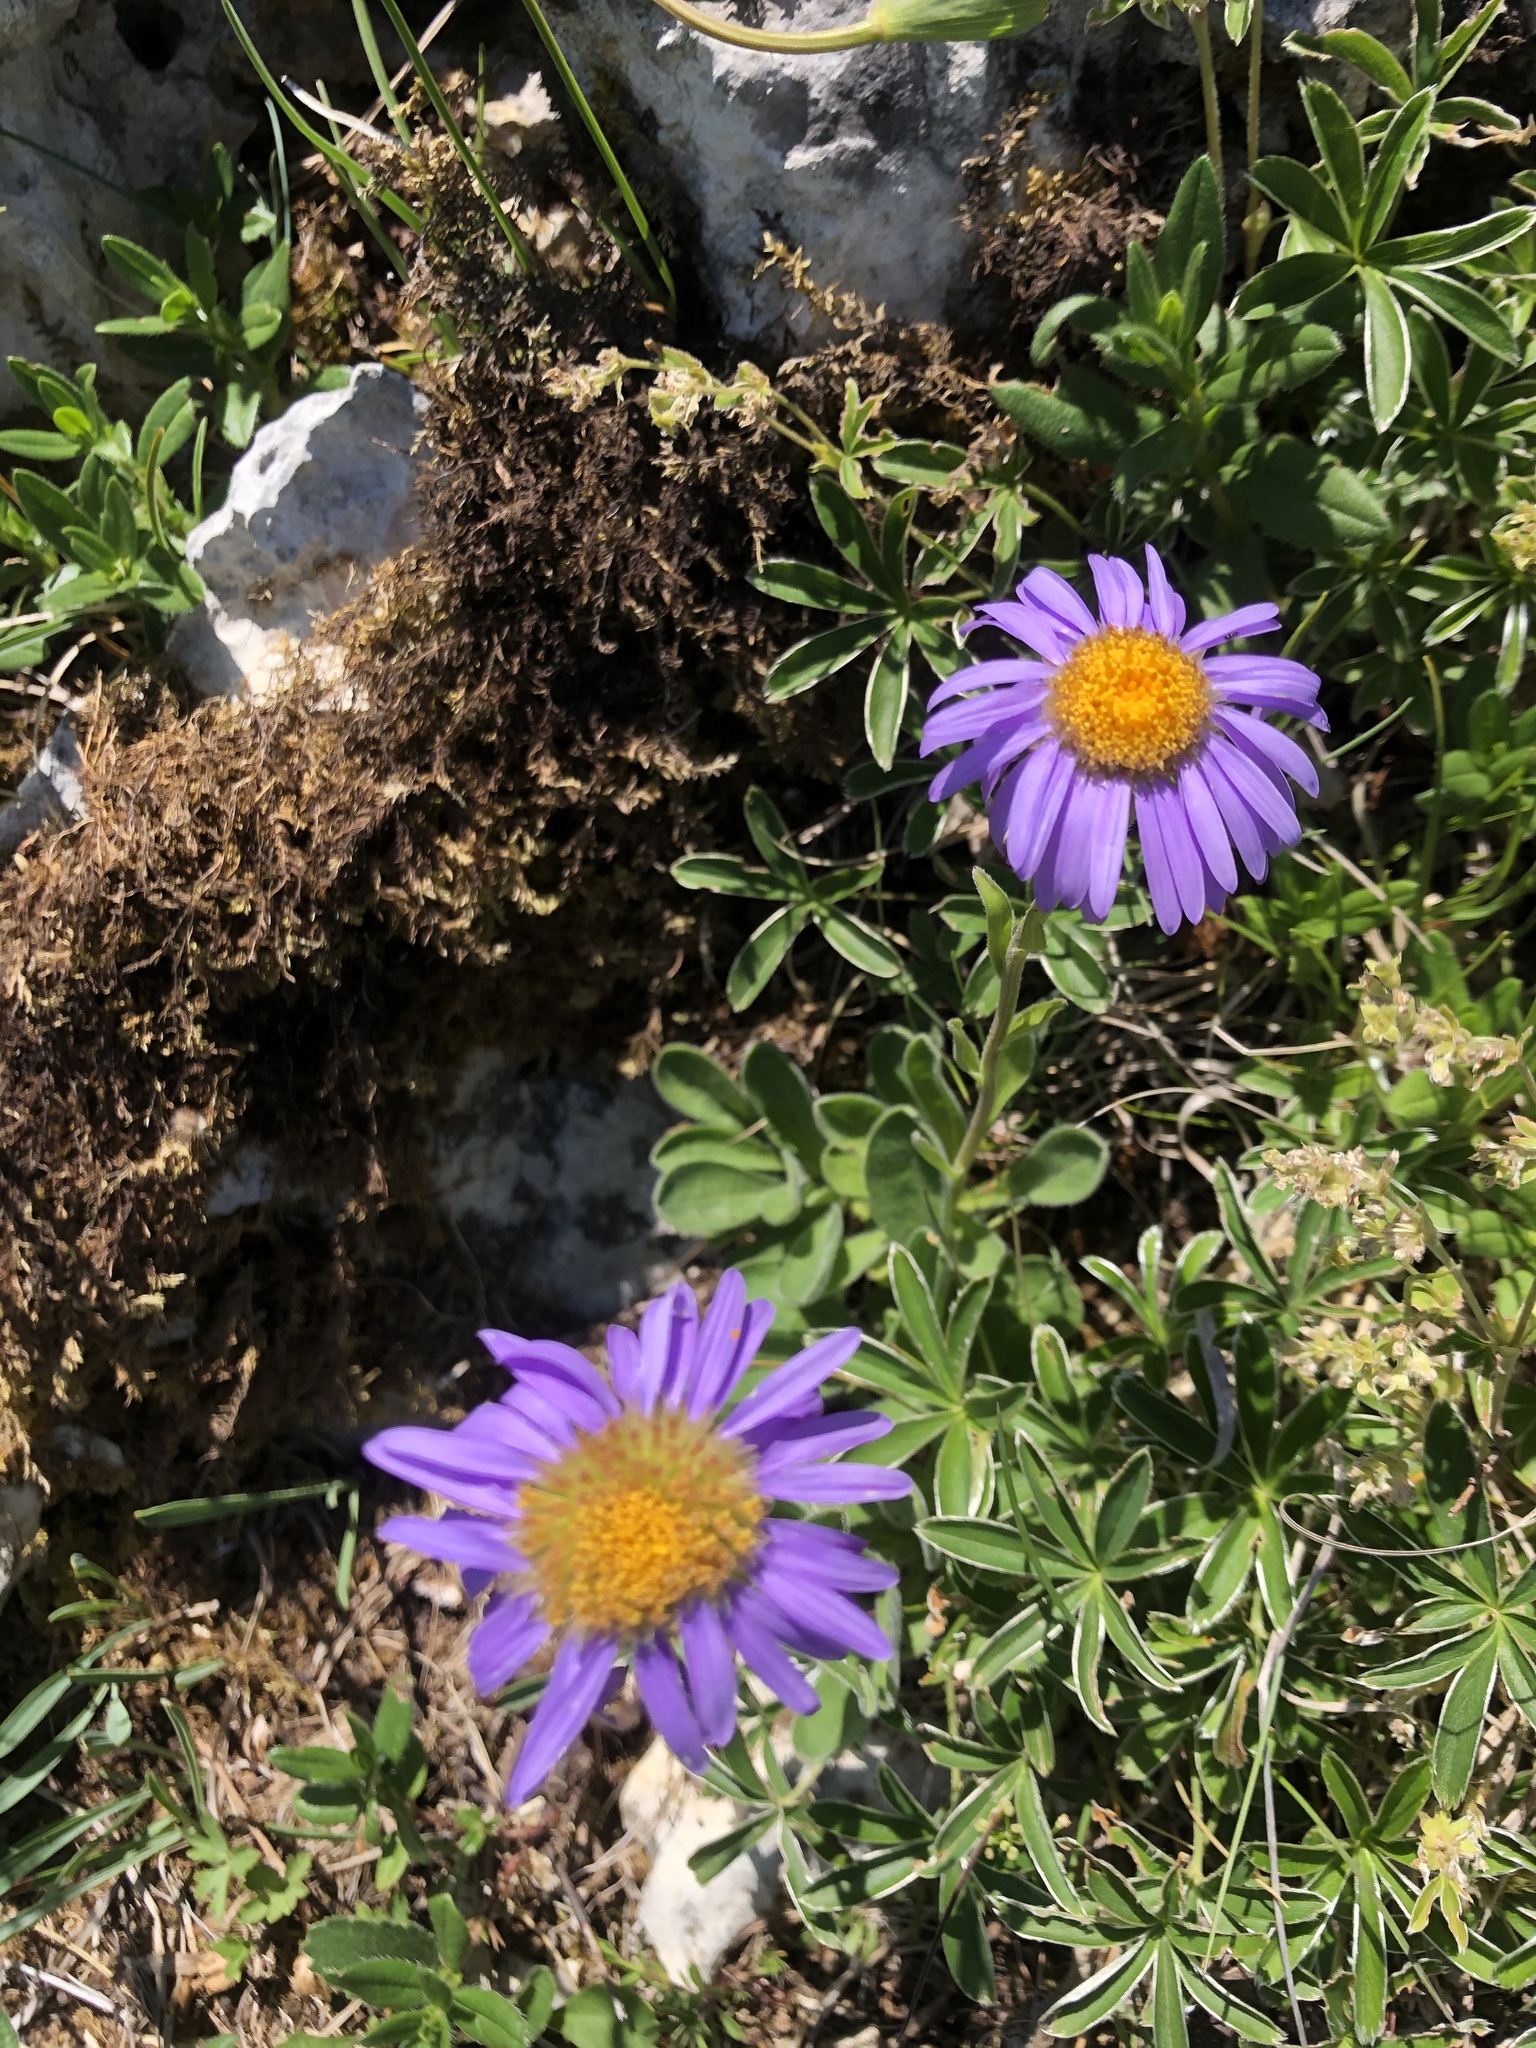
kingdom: Plantae
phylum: Tracheophyta
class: Magnoliopsida
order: Asterales
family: Asteraceae
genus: Aster
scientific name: Aster alpinus
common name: Alpine aster
